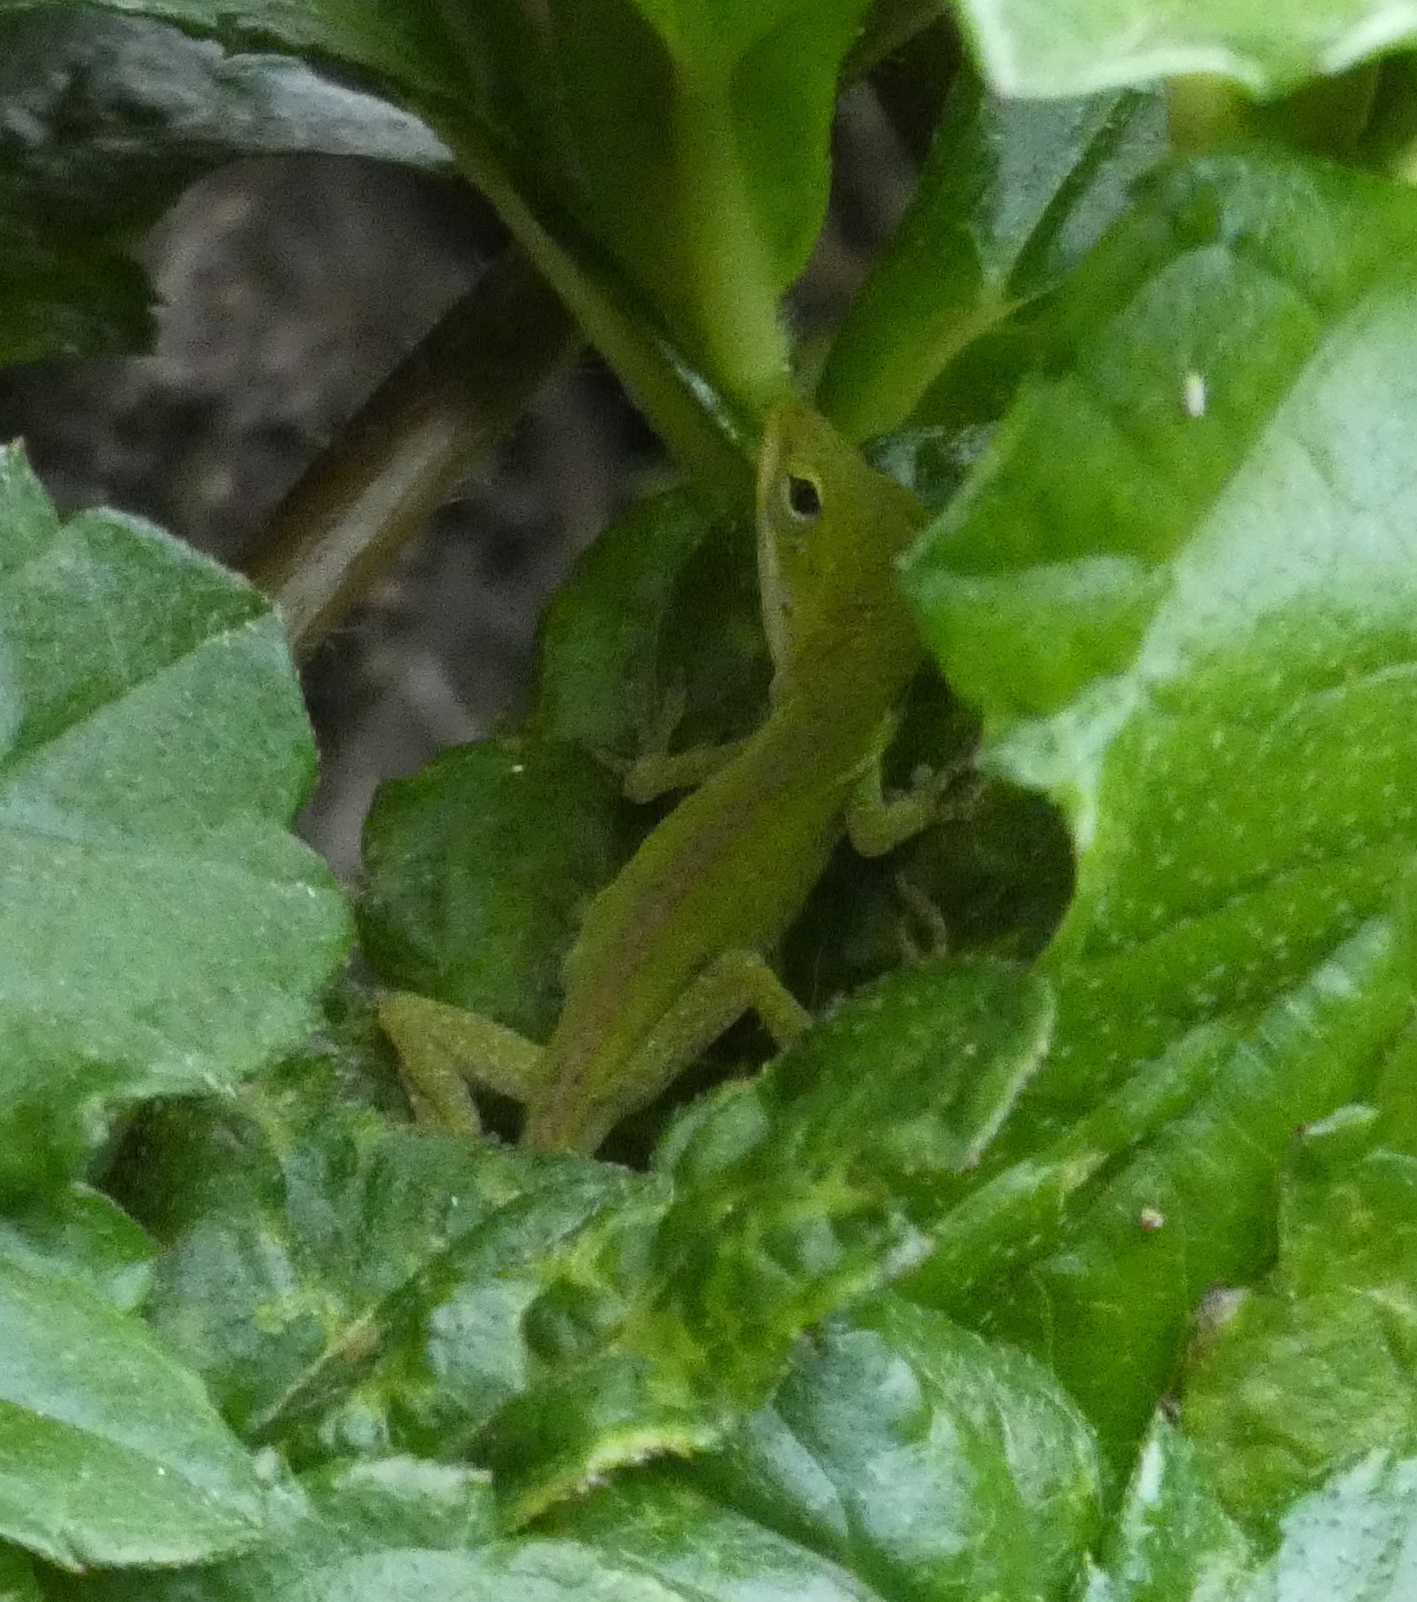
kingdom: Animalia
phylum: Chordata
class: Squamata
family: Dactyloidae
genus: Anolis
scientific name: Anolis carolinensis
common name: Green anole
